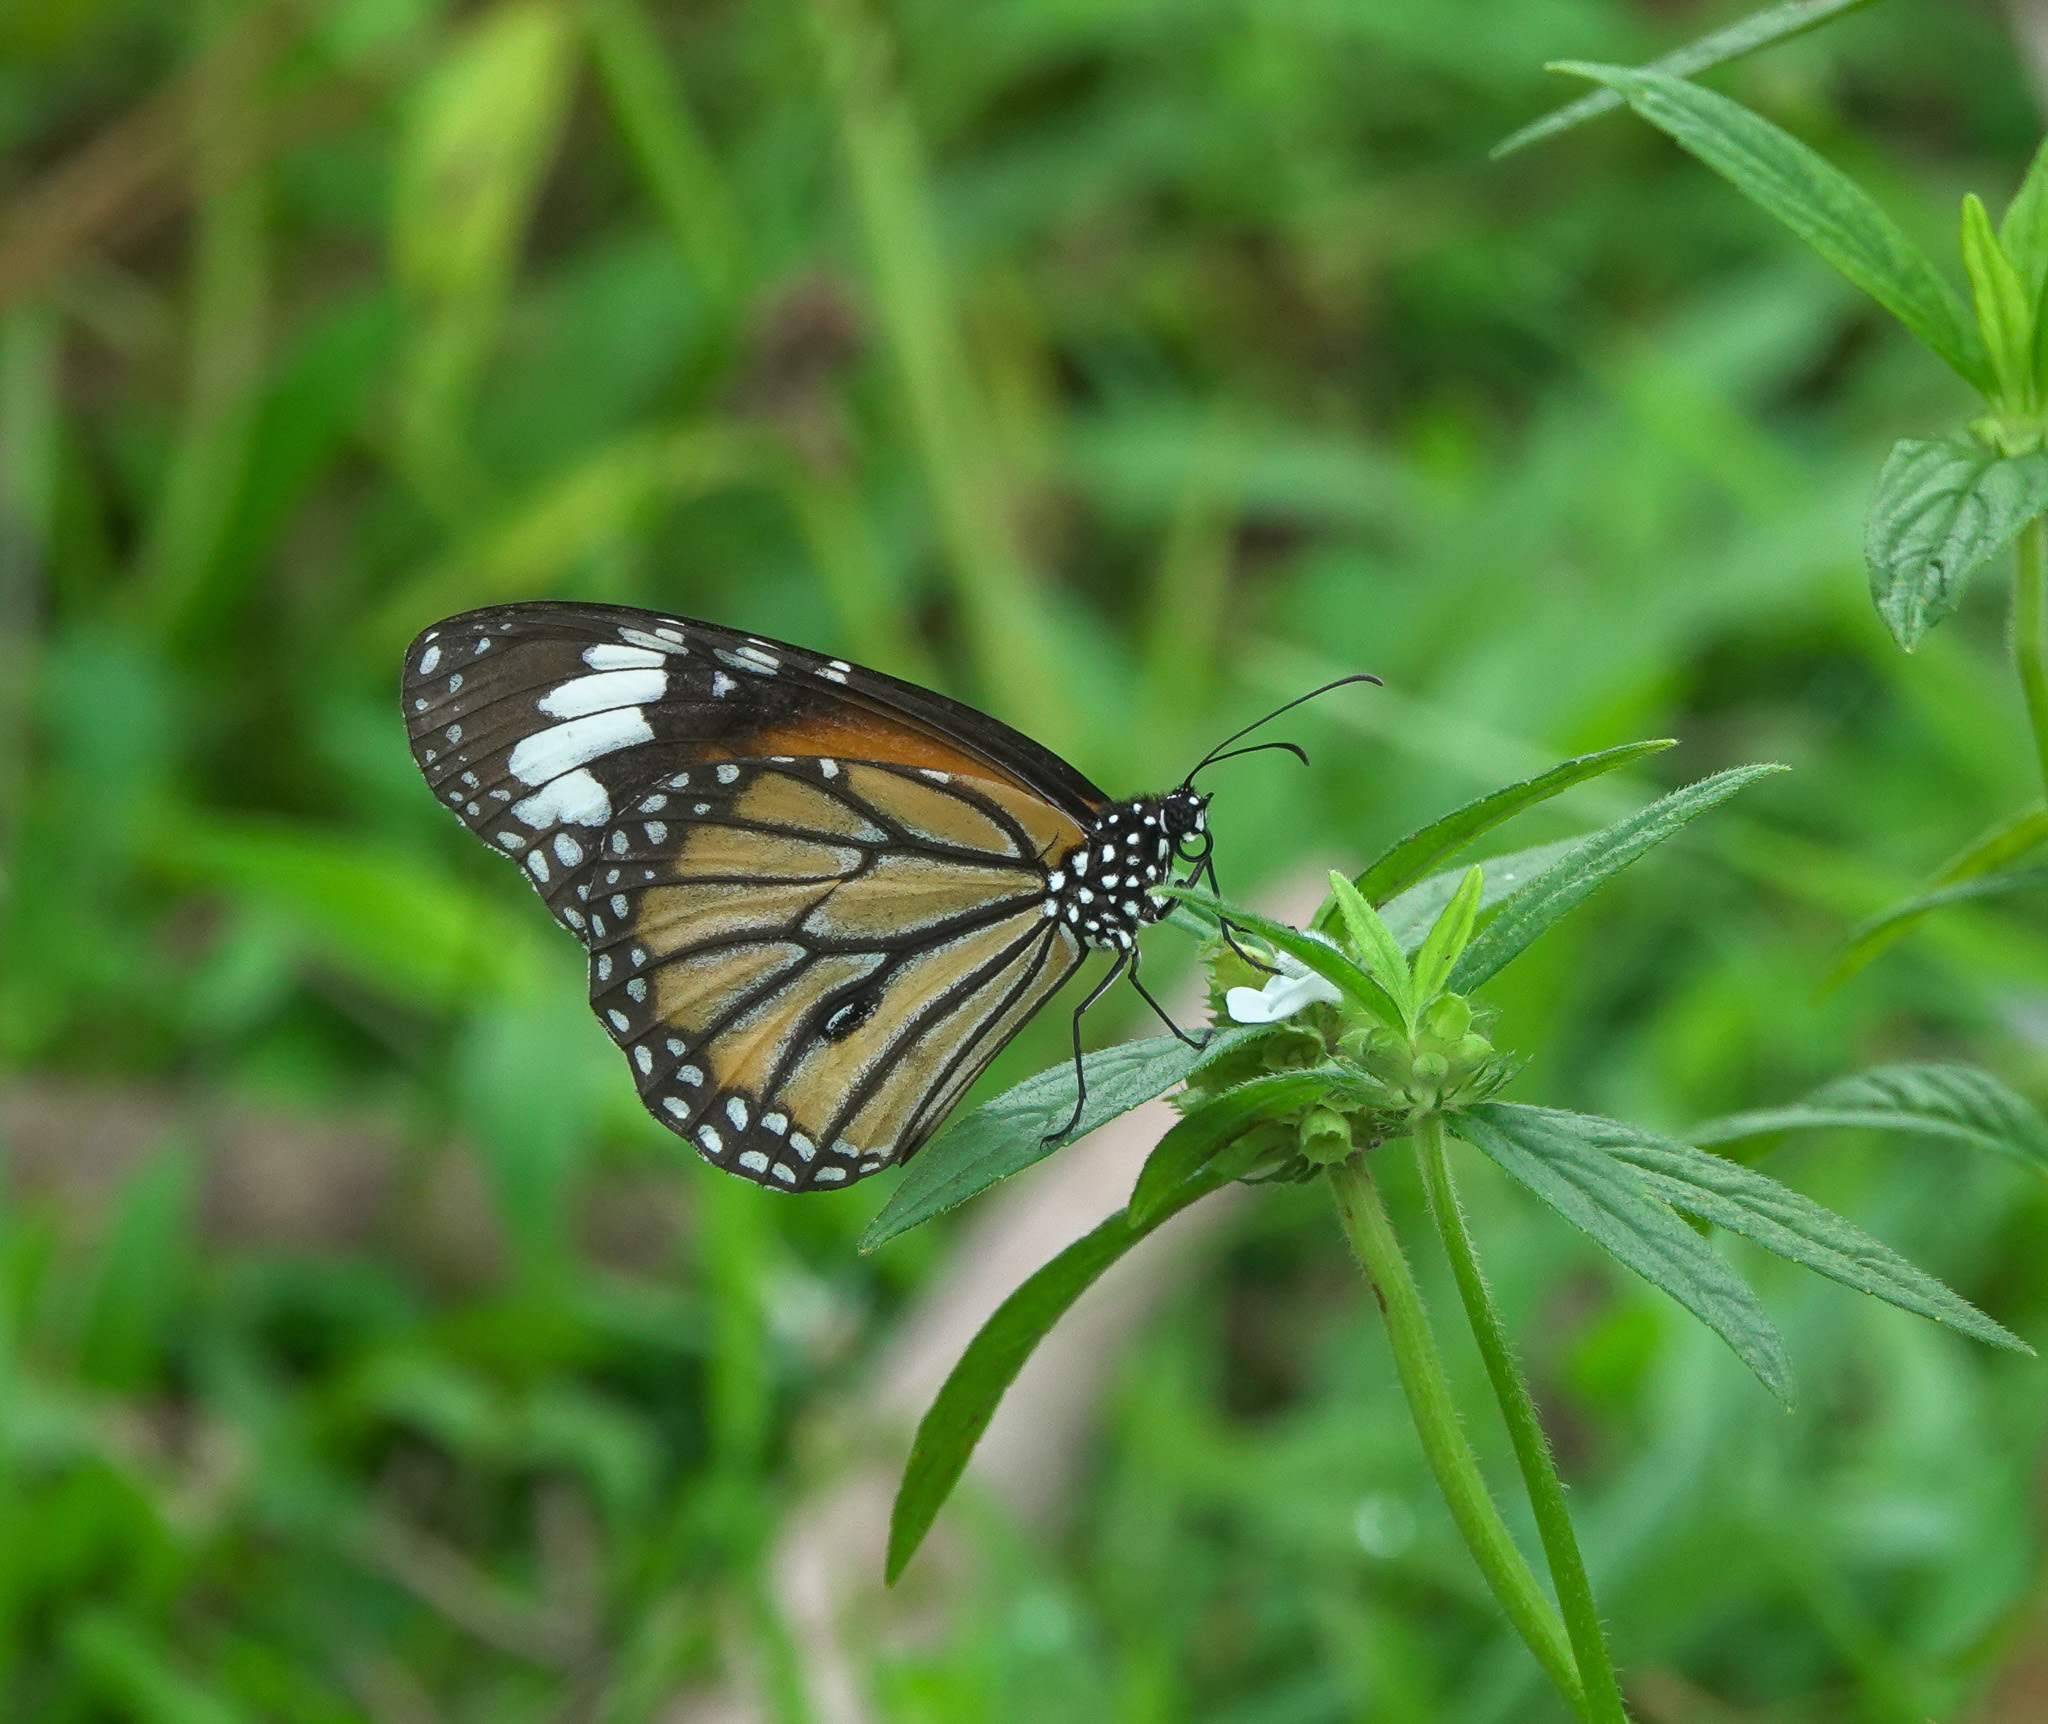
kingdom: Animalia
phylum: Arthropoda
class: Insecta
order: Lepidoptera
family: Nymphalidae
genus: Danaus
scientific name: Danaus genutia
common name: Common tiger butterfly
